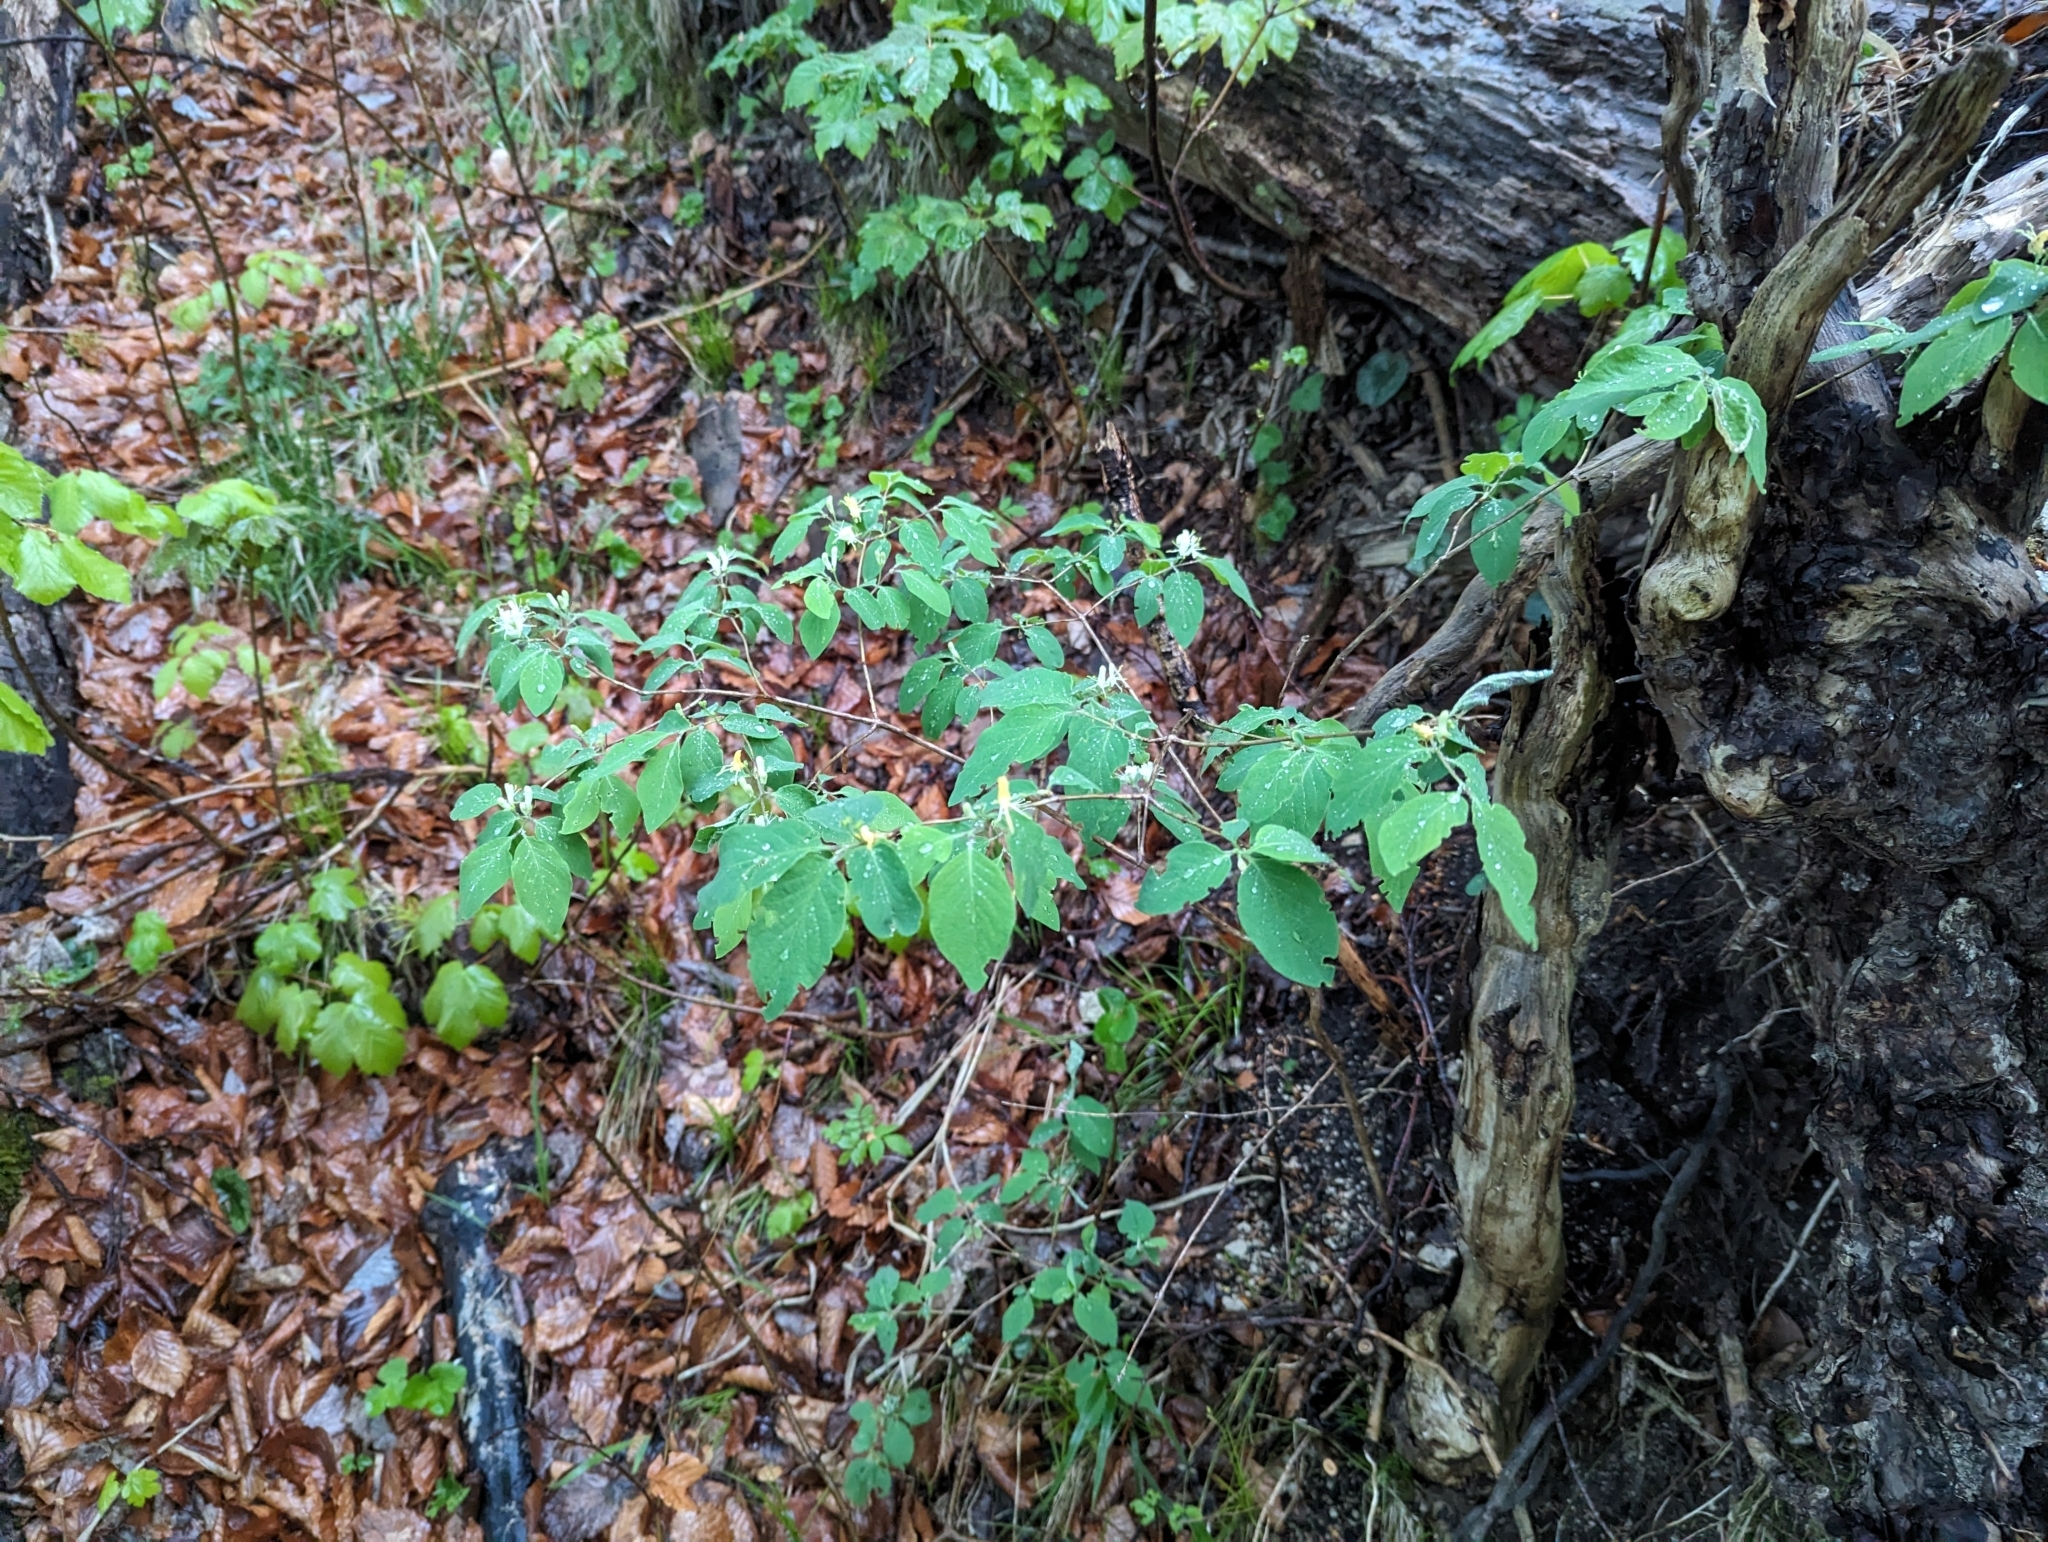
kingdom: Plantae
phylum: Tracheophyta
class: Magnoliopsida
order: Dipsacales
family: Caprifoliaceae
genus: Lonicera
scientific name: Lonicera xylosteum
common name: Fly honeysuckle
